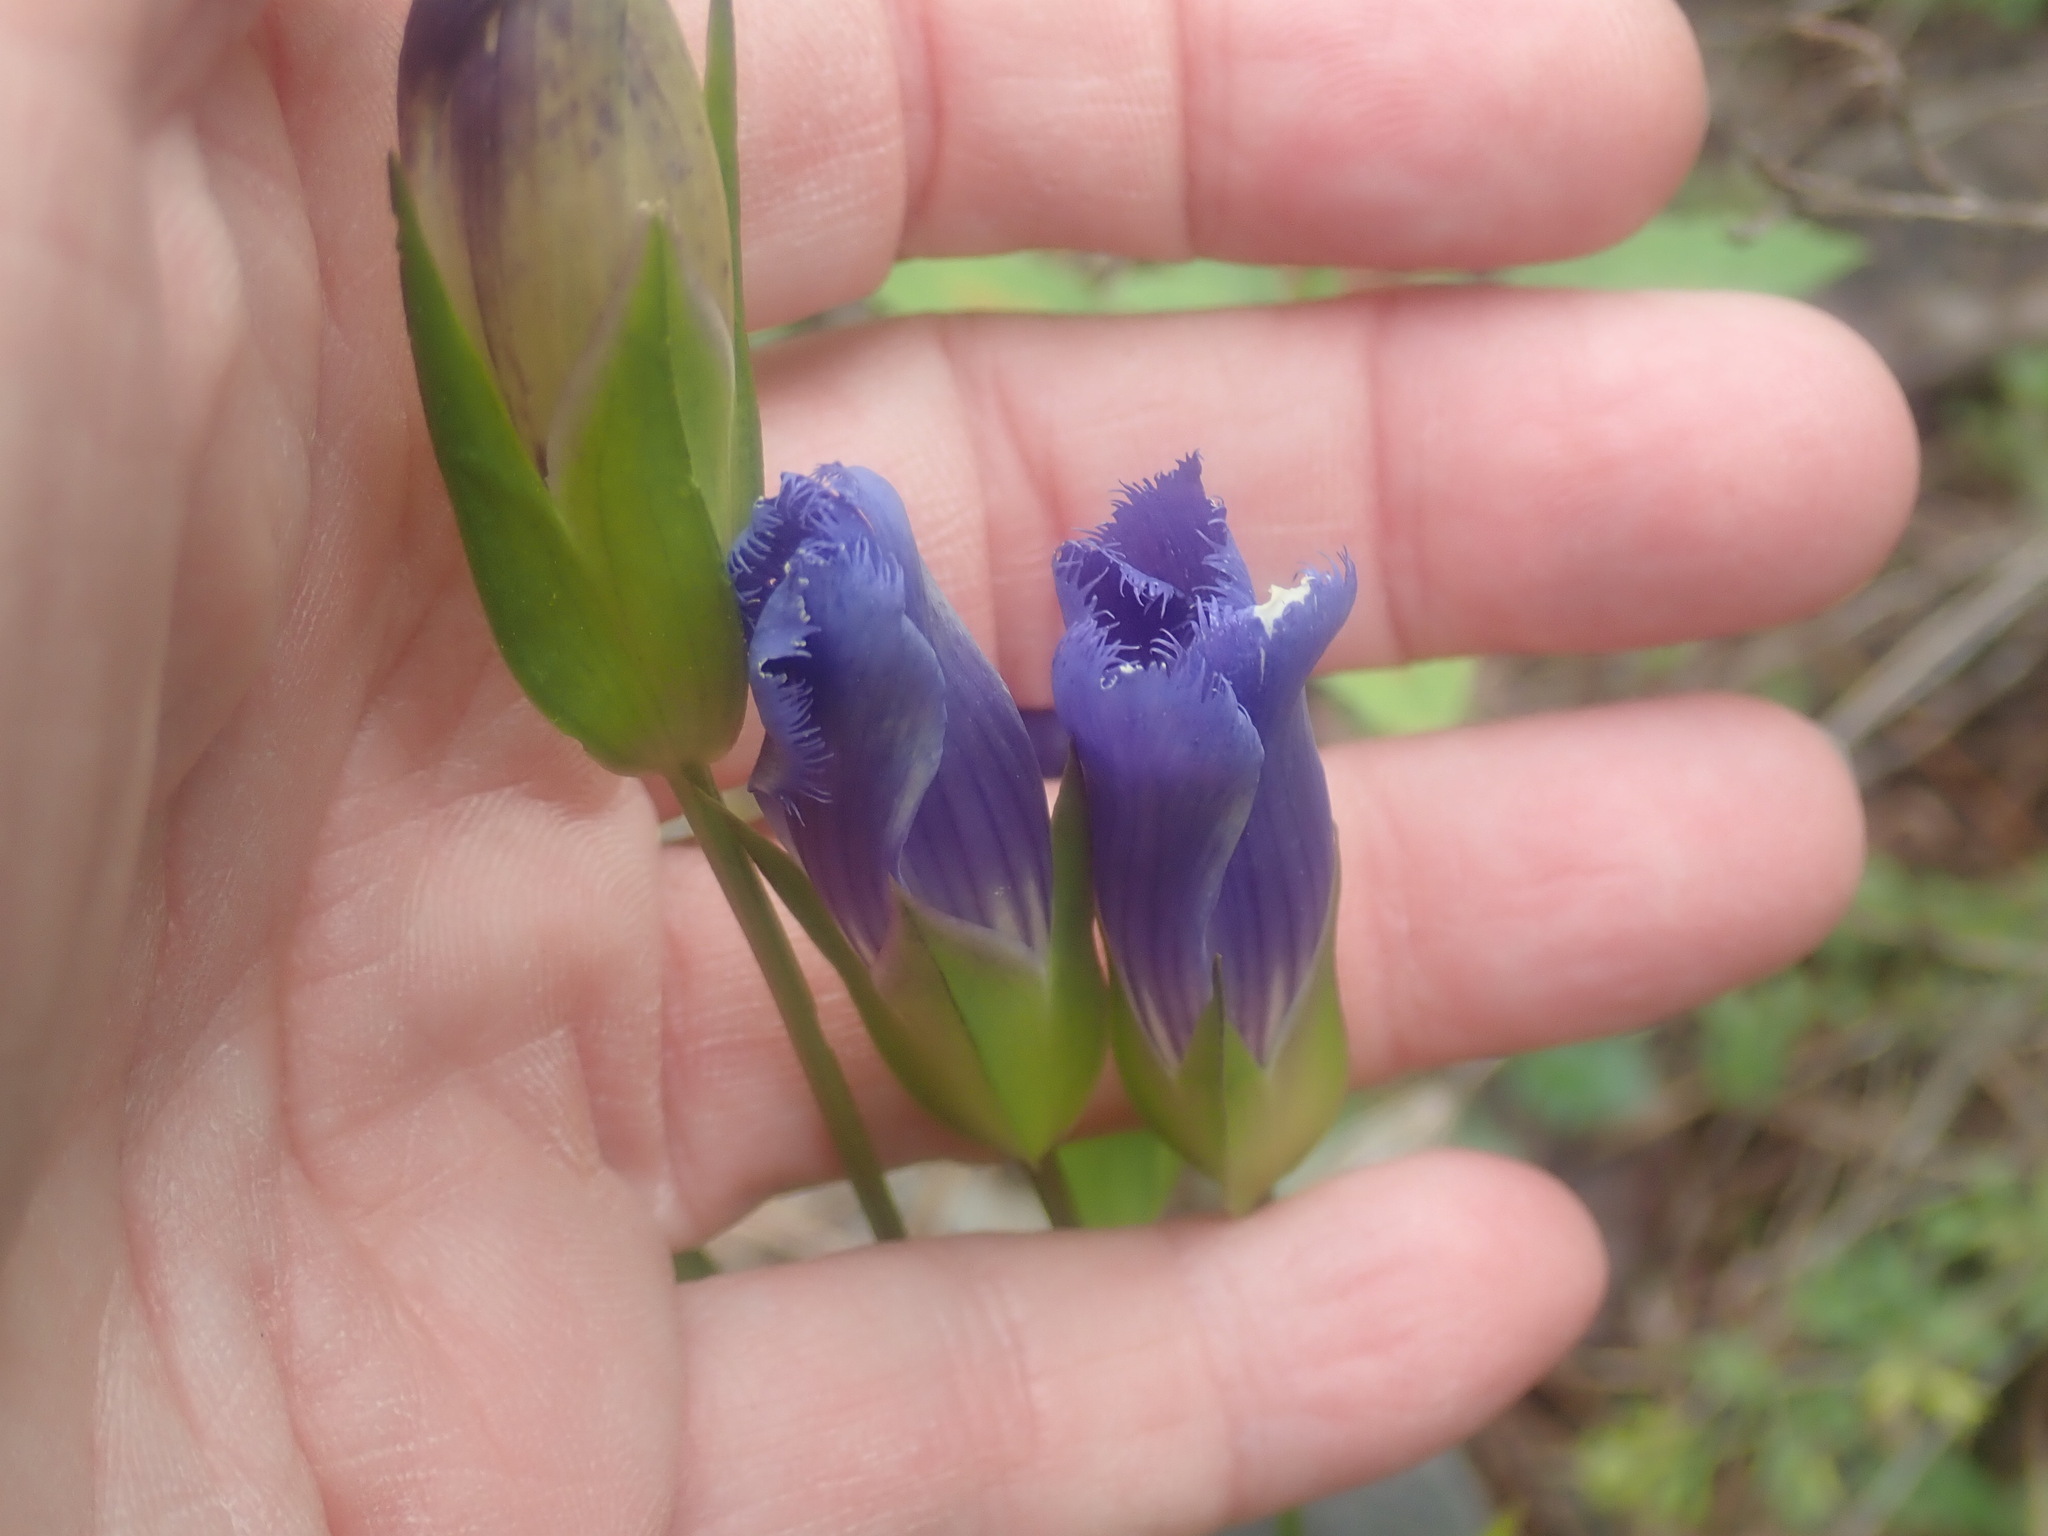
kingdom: Plantae
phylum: Tracheophyta
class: Magnoliopsida
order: Gentianales
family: Gentianaceae
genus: Gentianopsis
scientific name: Gentianopsis crinita
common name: Fringed-gentian
